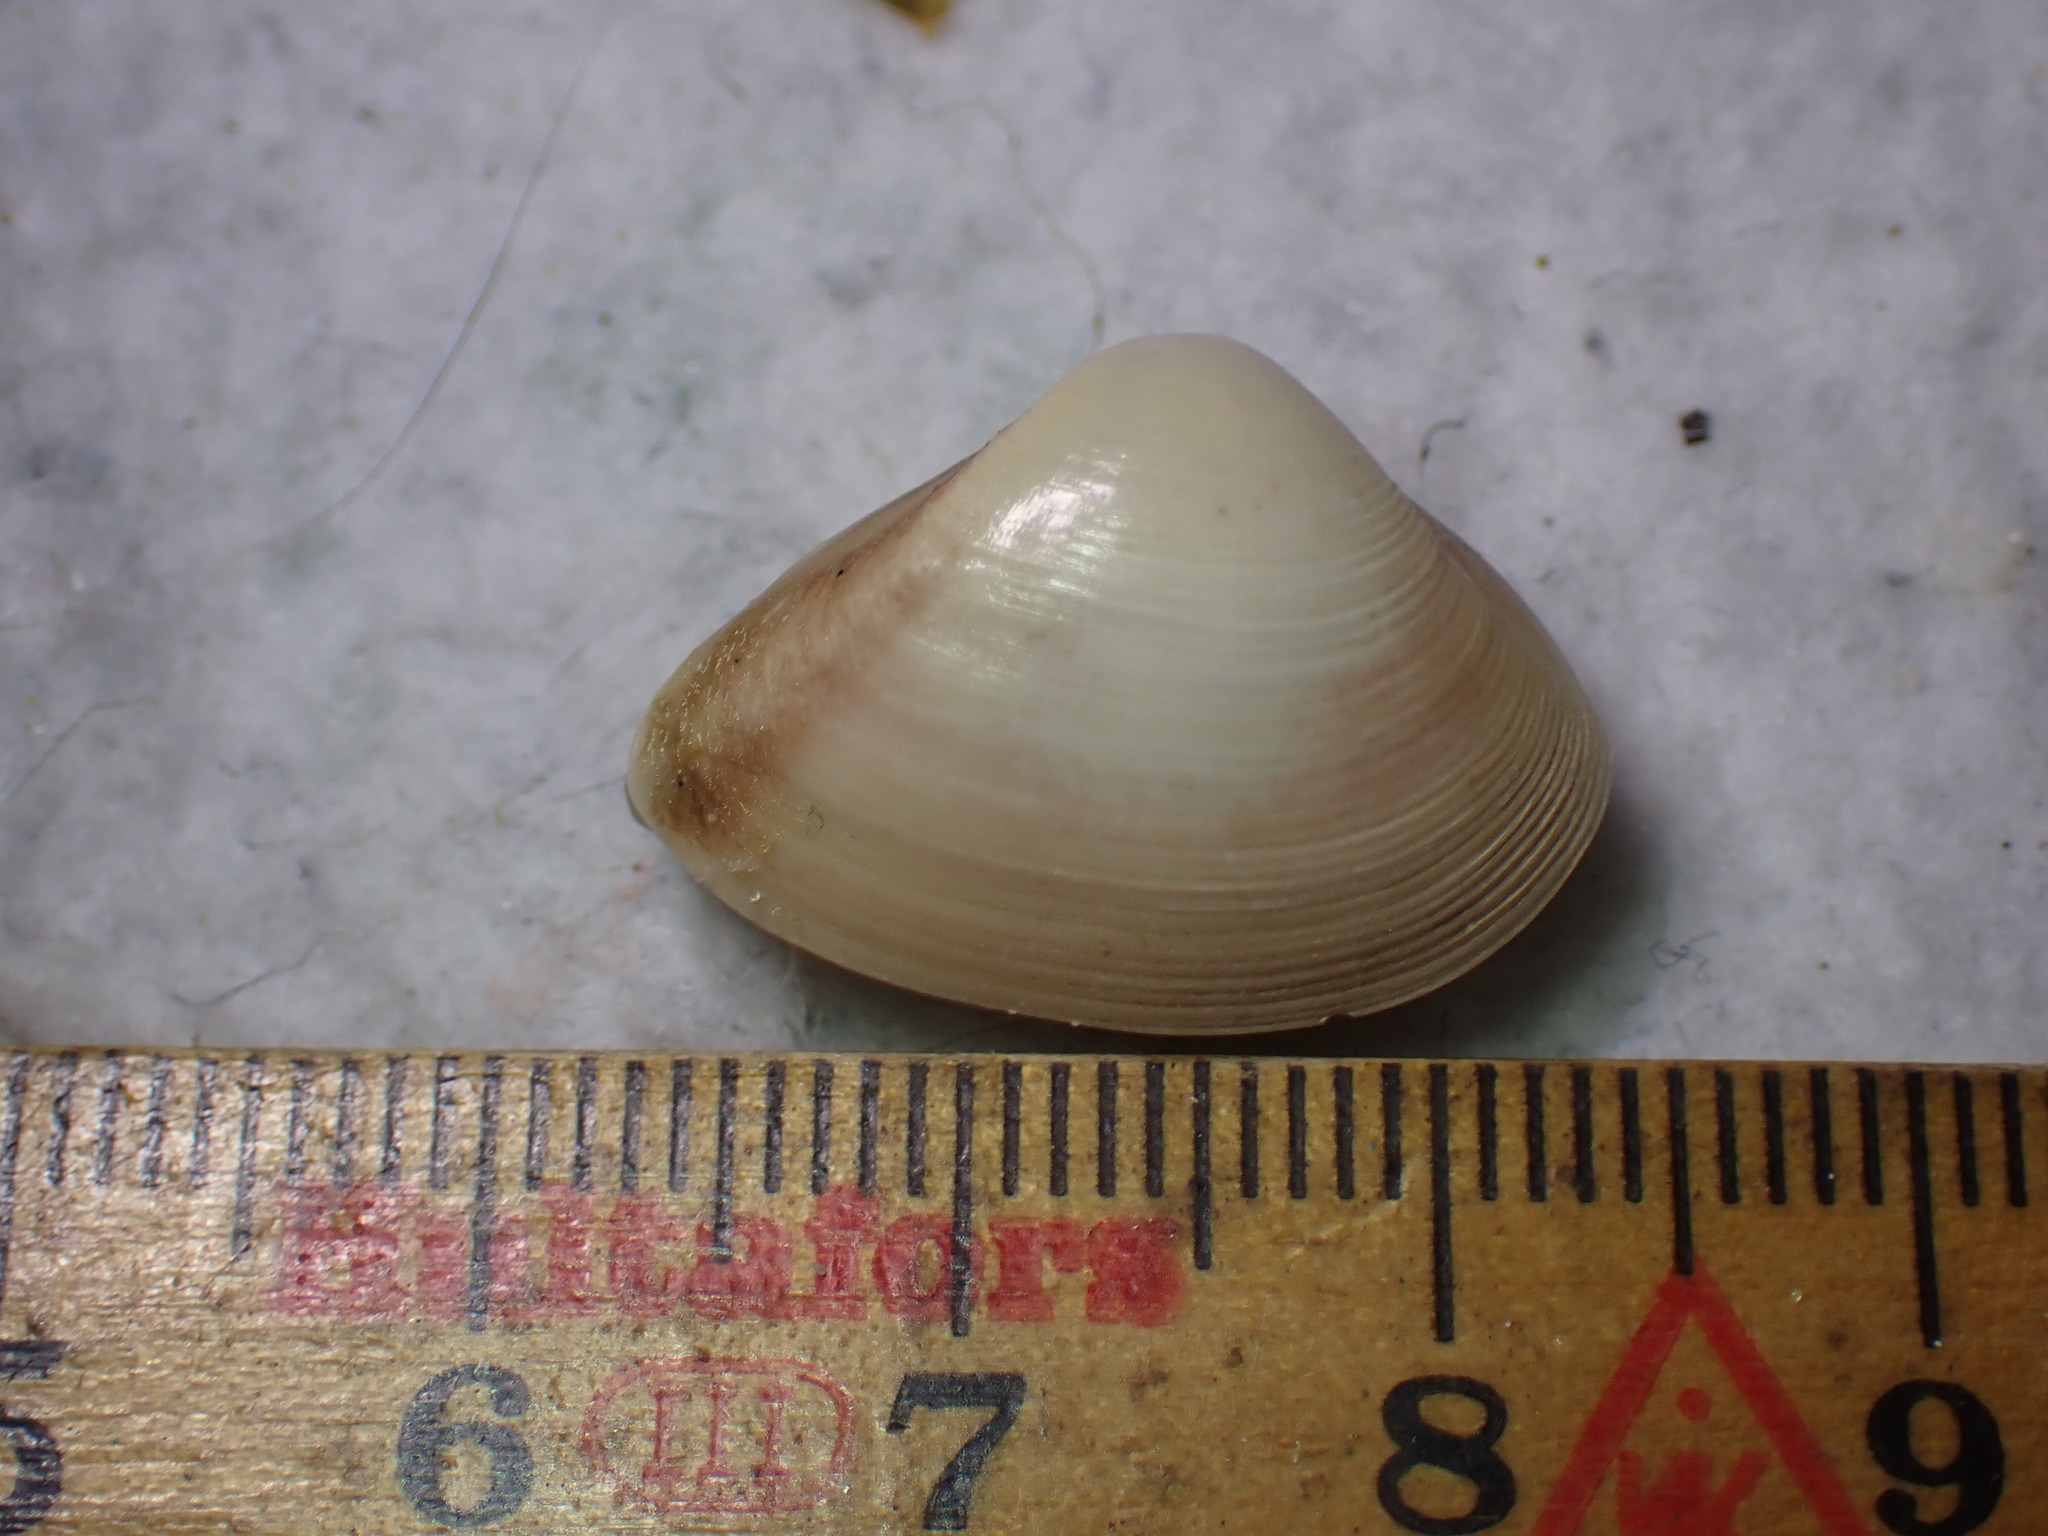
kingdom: Animalia
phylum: Mollusca
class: Bivalvia
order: Venerida
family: Mactridae
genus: Spisula
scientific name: Spisula subtruncata
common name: Cut trough shell
